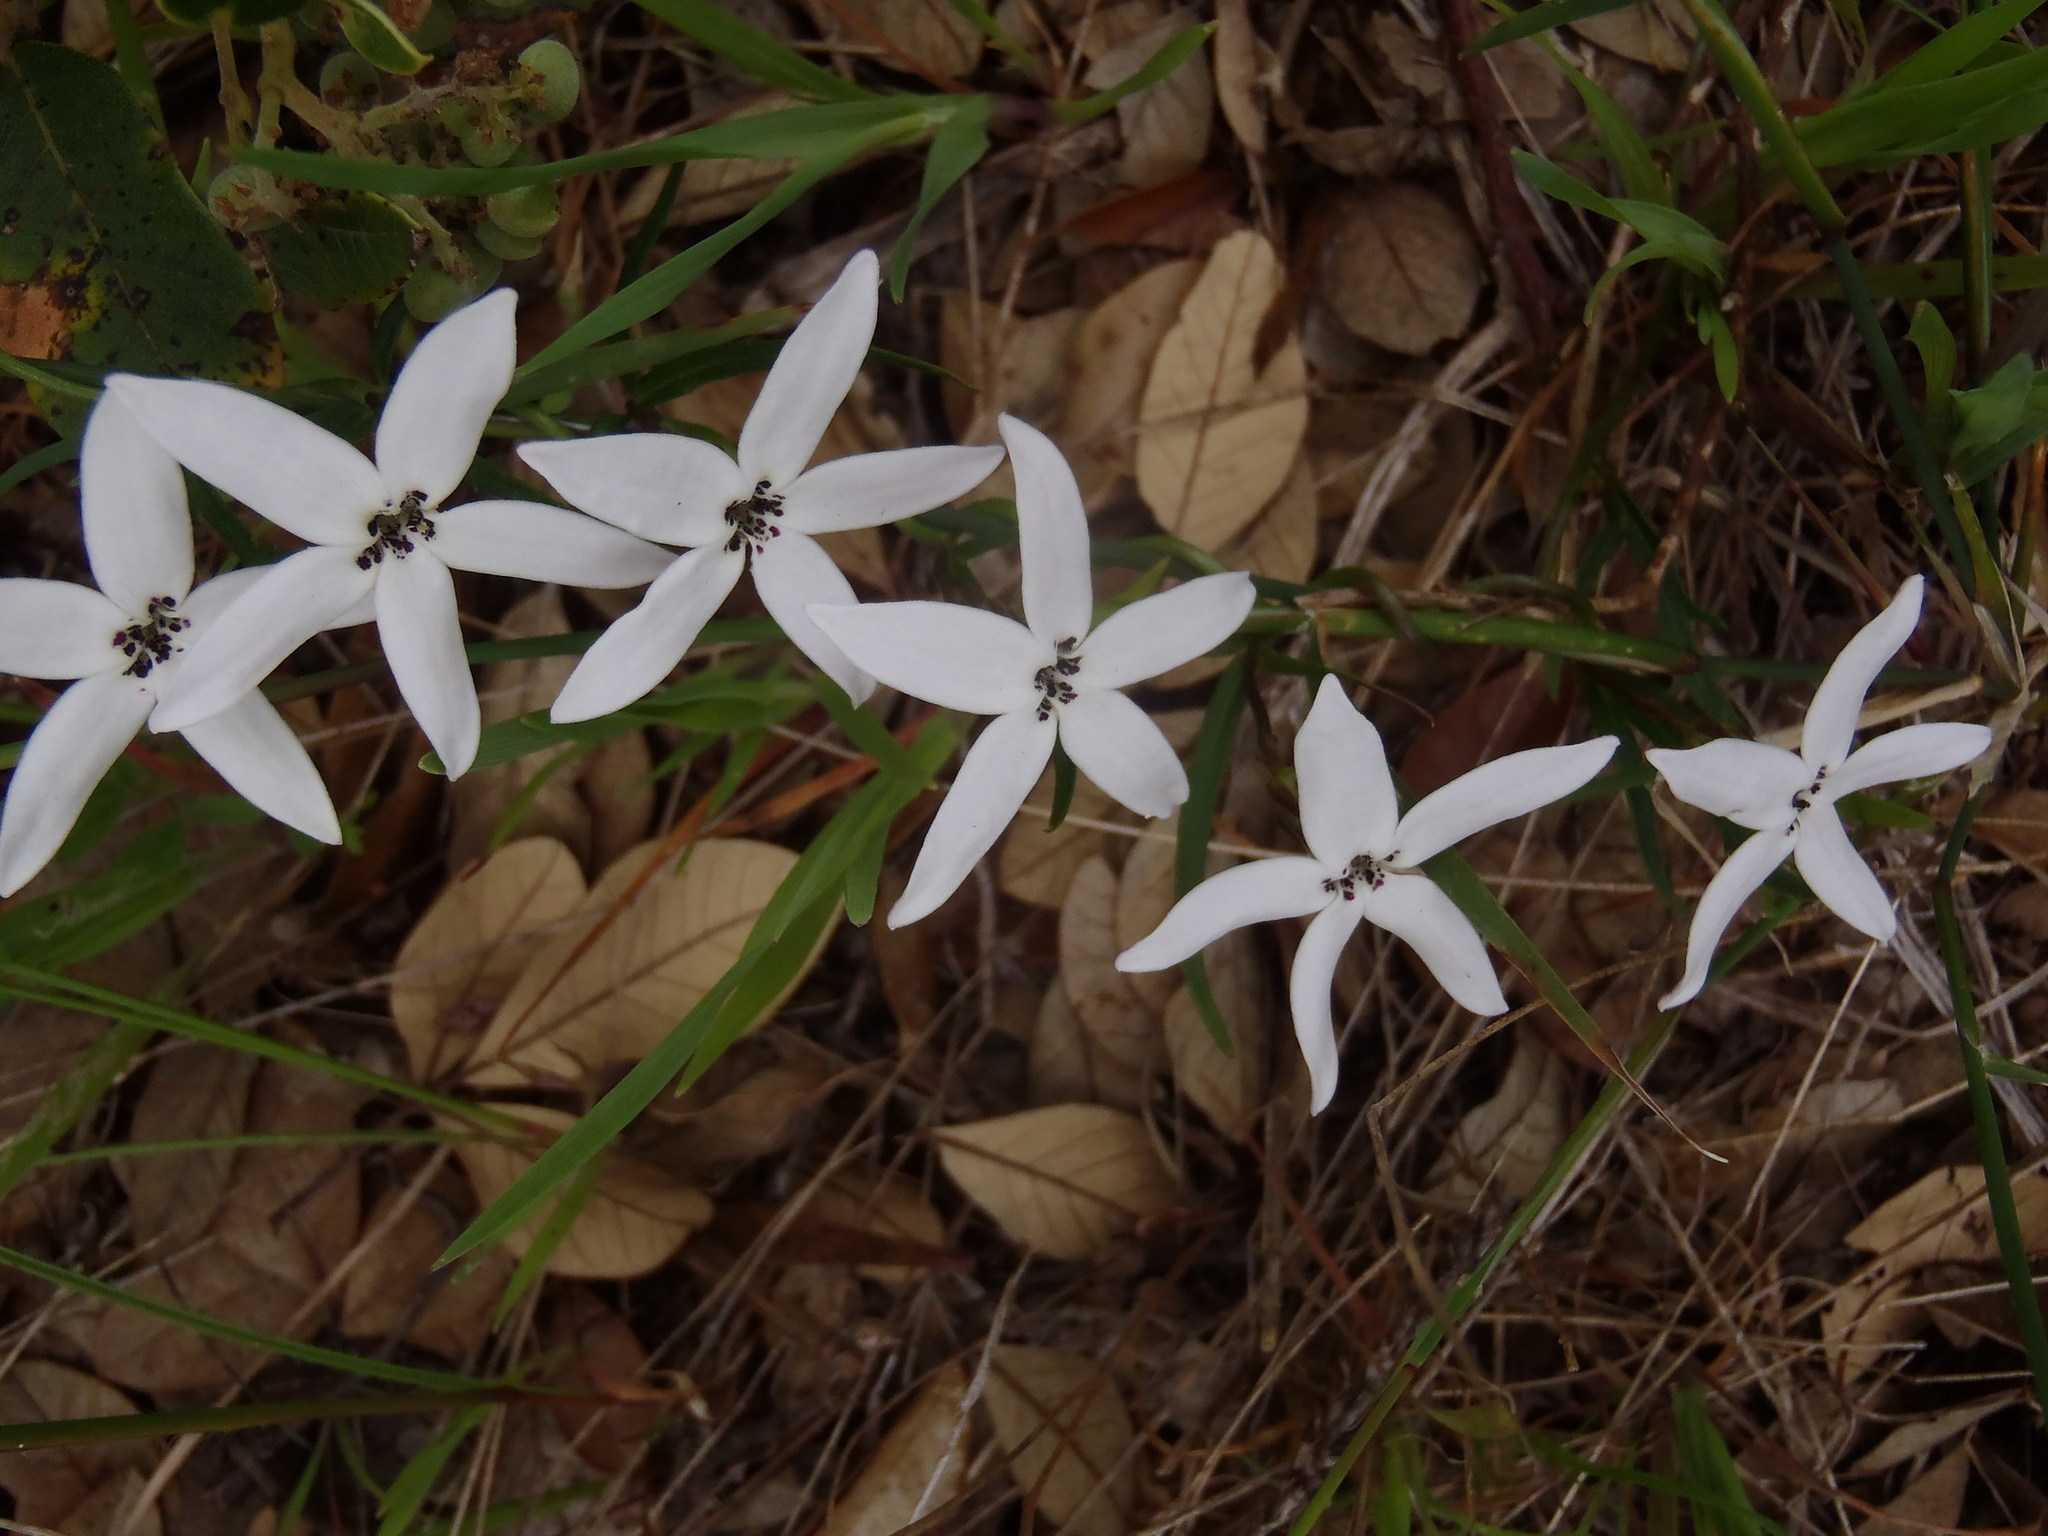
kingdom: Plantae
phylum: Tracheophyta
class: Magnoliopsida
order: Asterales
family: Campanulaceae
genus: Cyphia
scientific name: Cyphia volubilis
